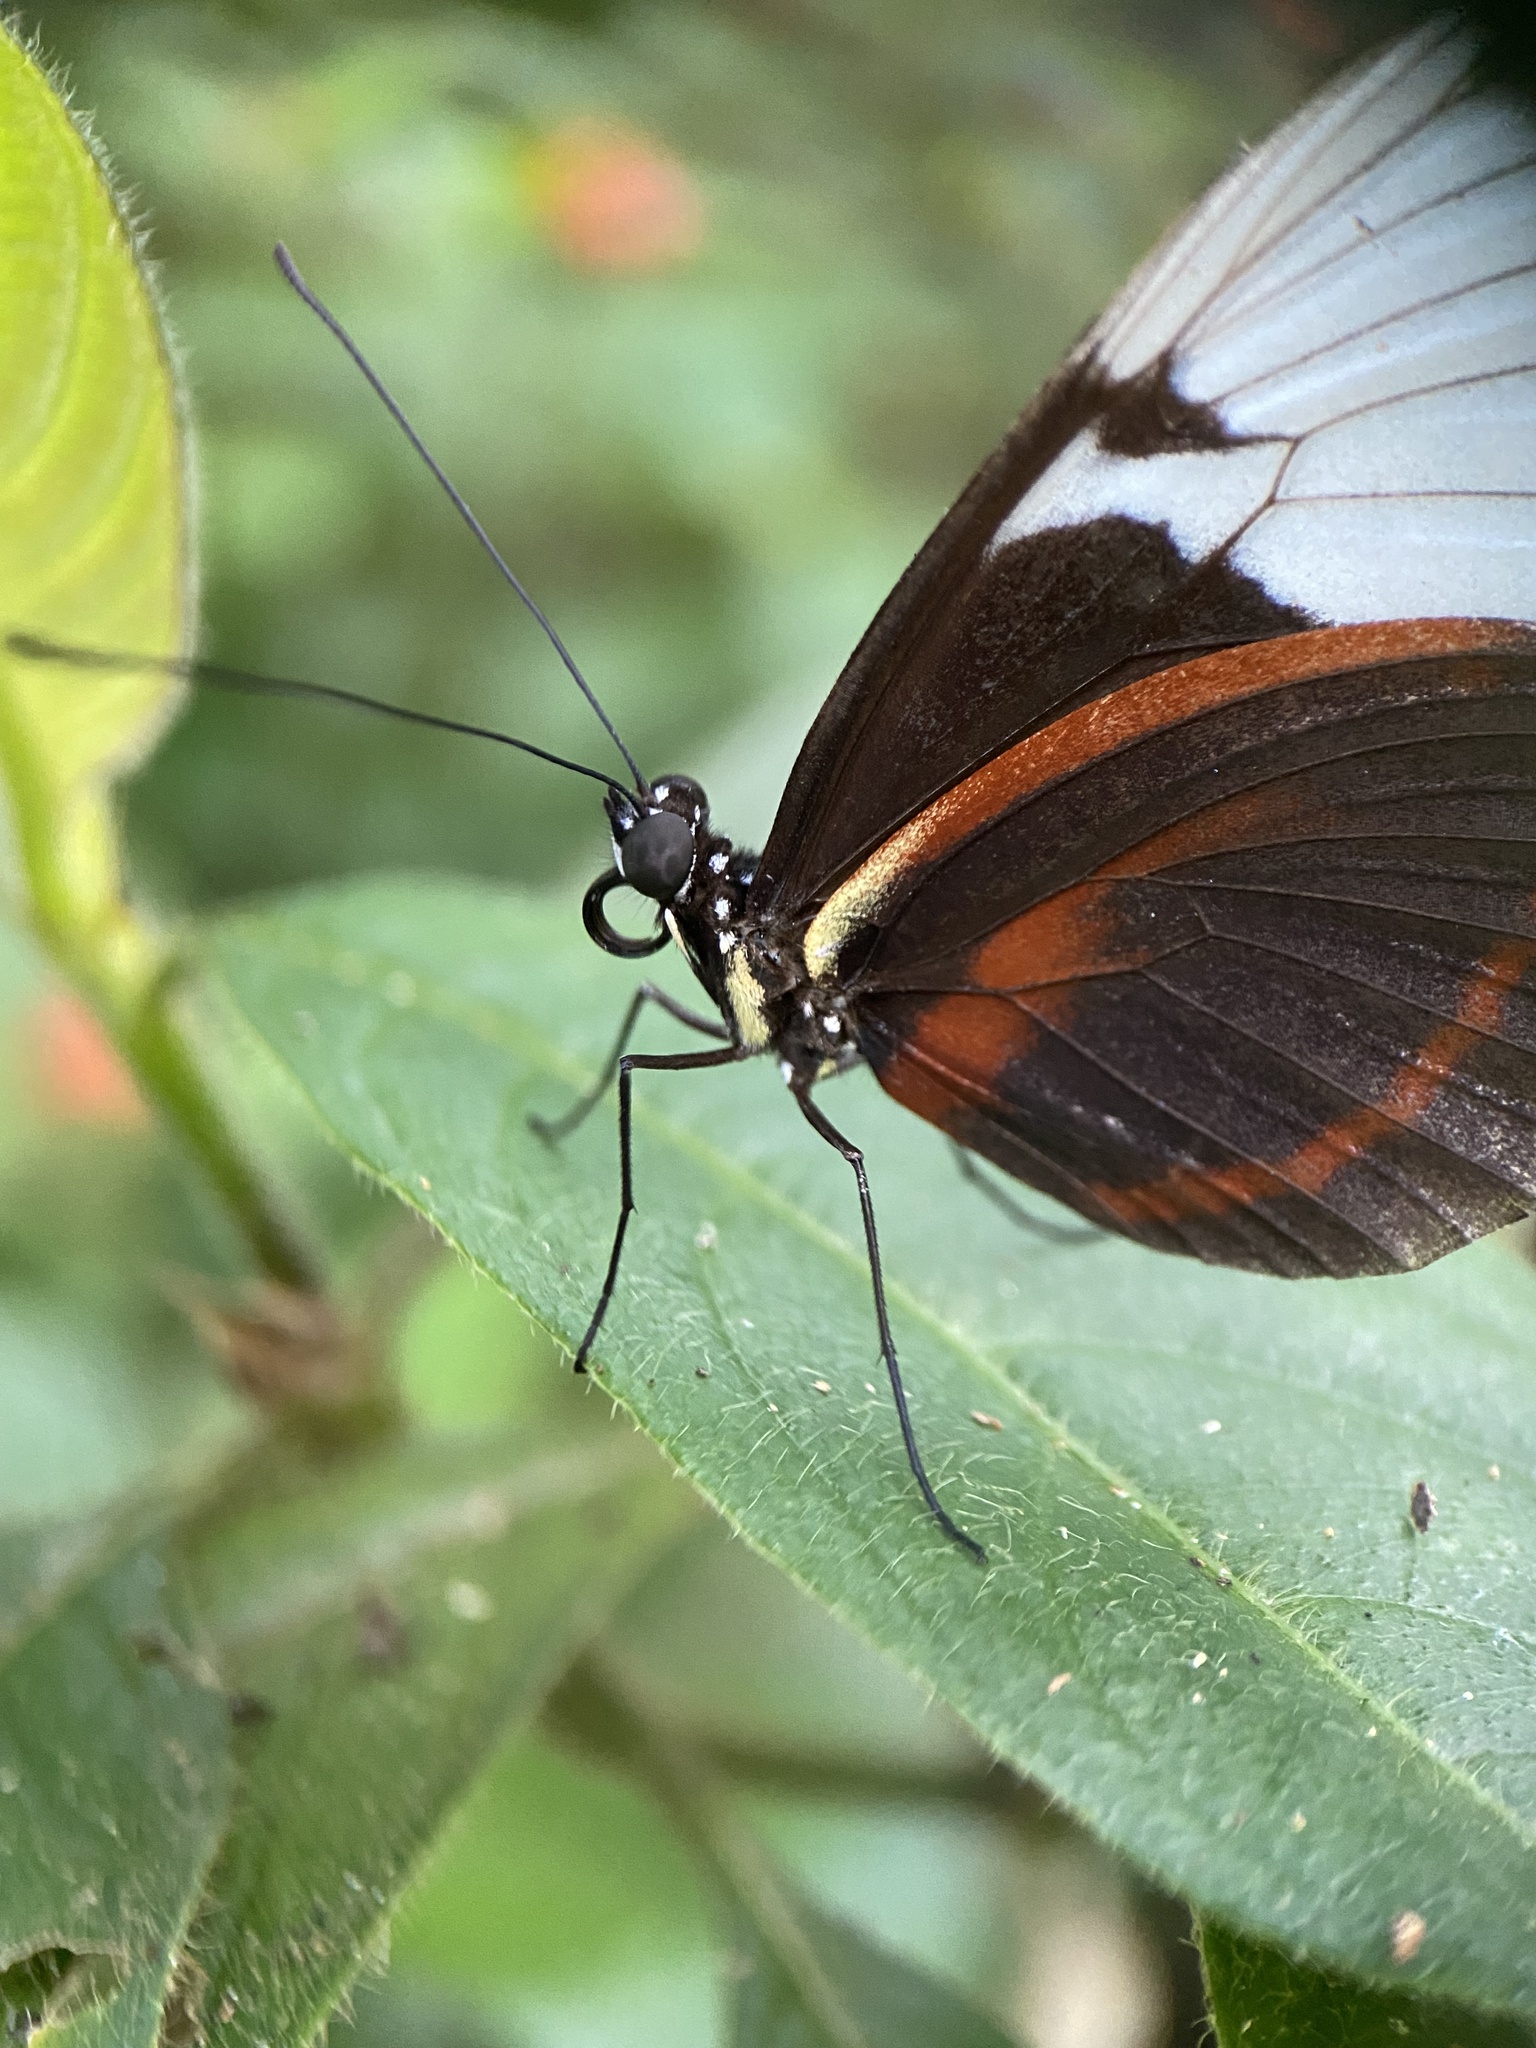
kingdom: Animalia
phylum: Arthropoda
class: Insecta
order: Lepidoptera
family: Nymphalidae
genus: Heliconius
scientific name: Heliconius cydno
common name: Cydno longwing
